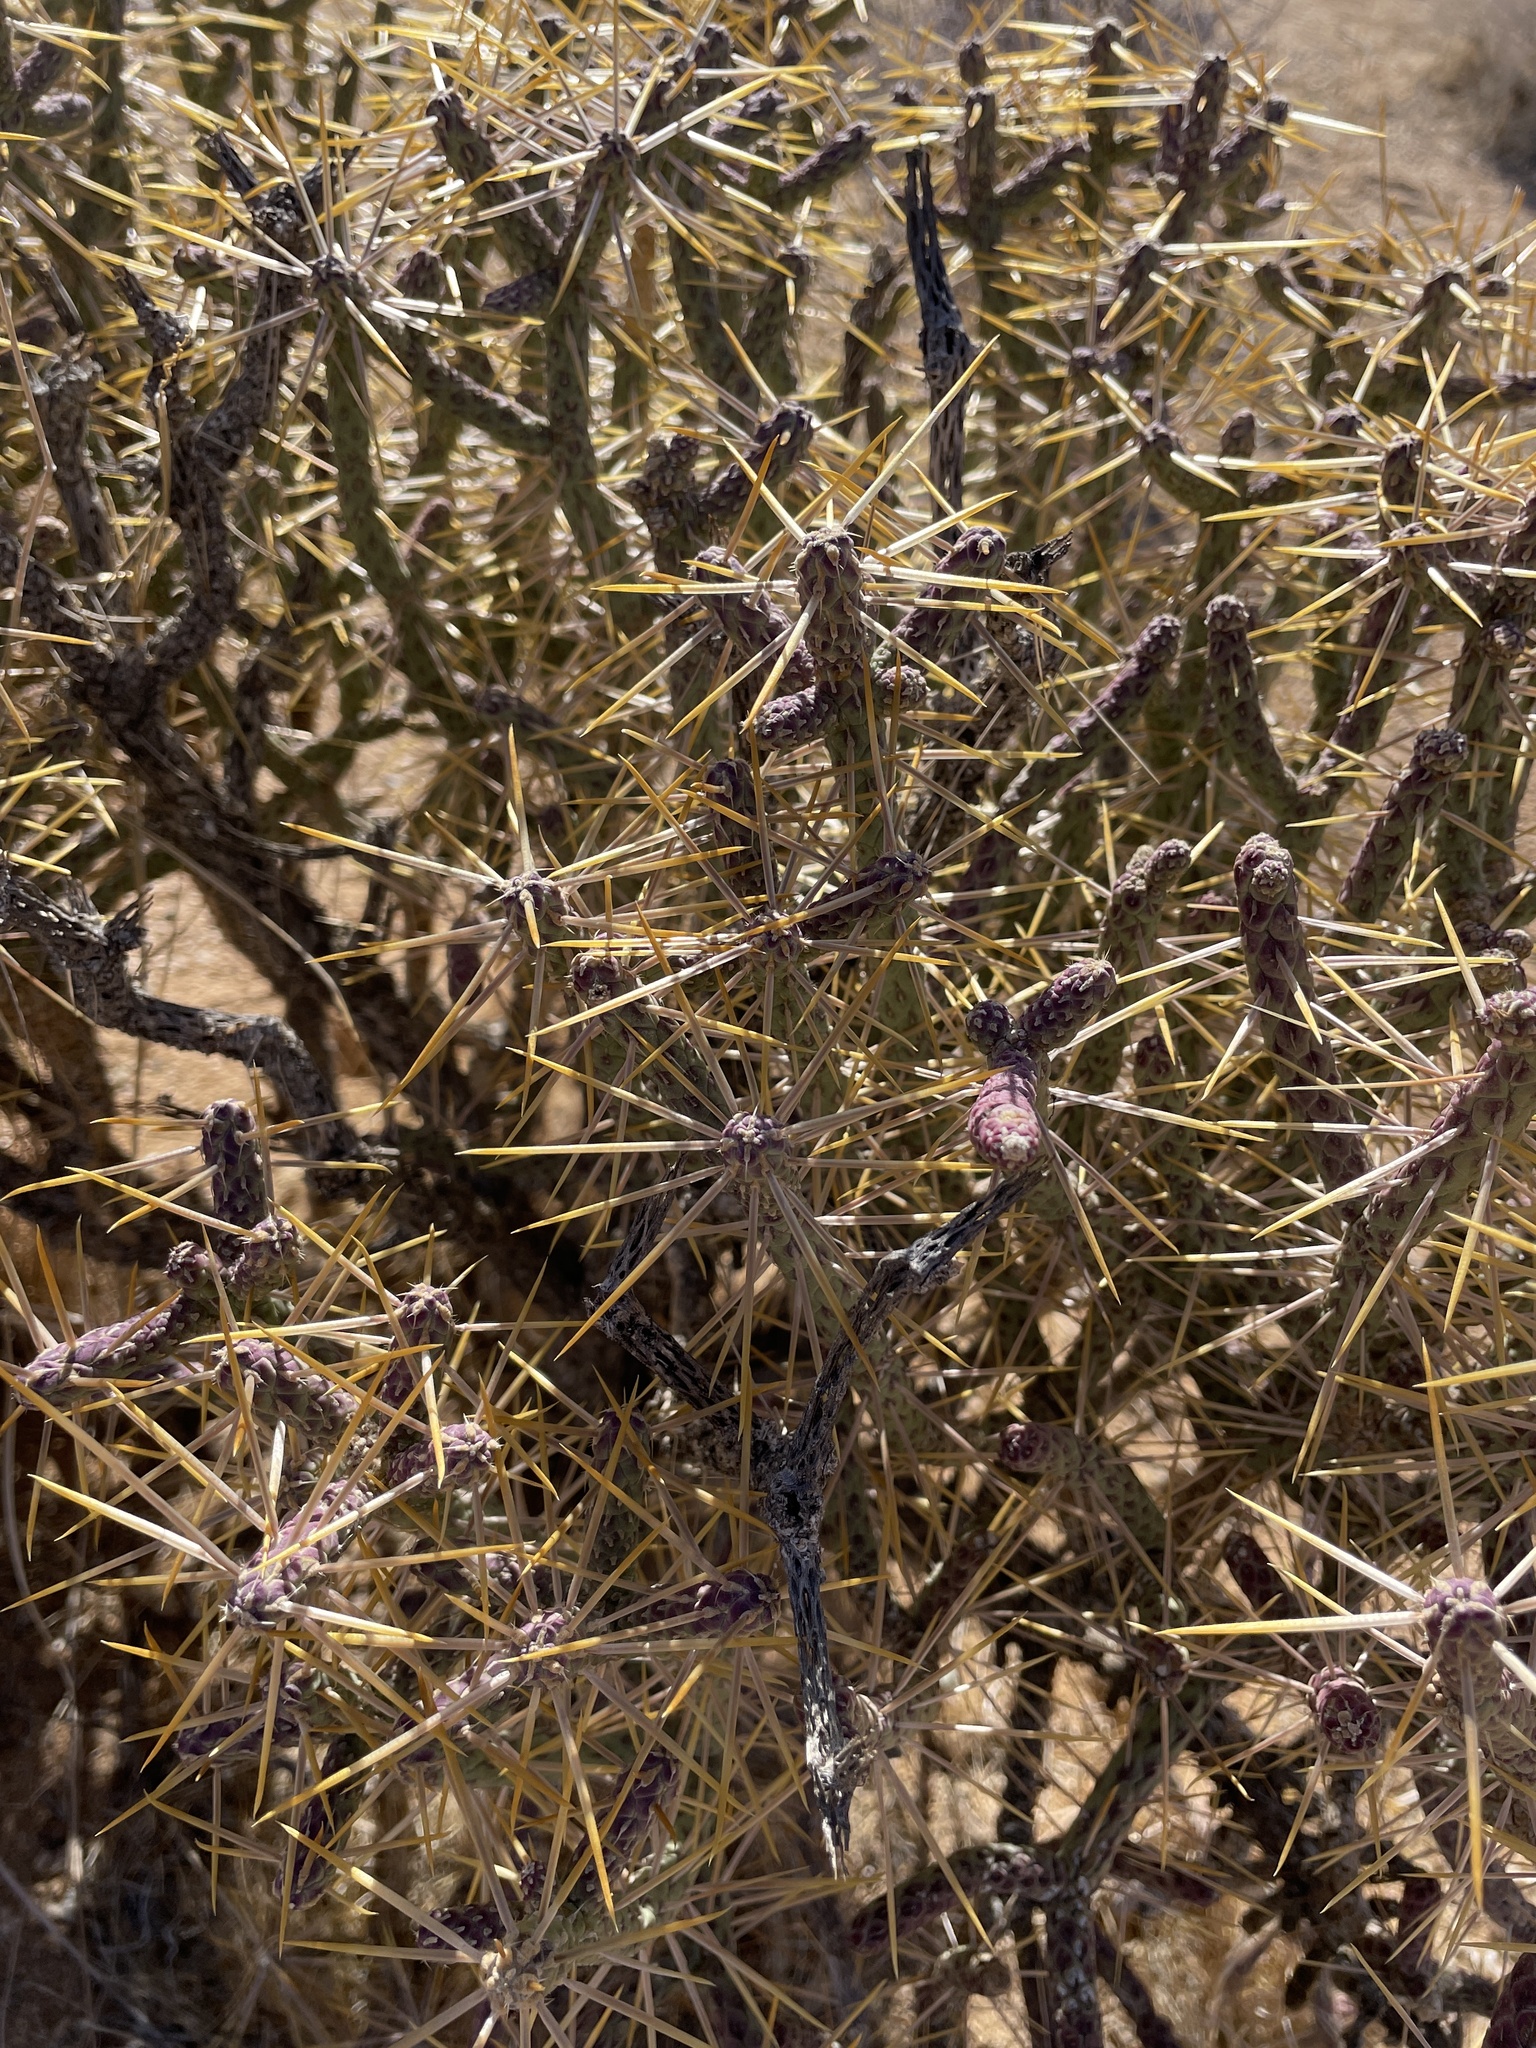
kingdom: Plantae
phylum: Tracheophyta
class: Magnoliopsida
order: Caryophyllales
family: Cactaceae
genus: Cylindropuntia
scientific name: Cylindropuntia ramosissima
